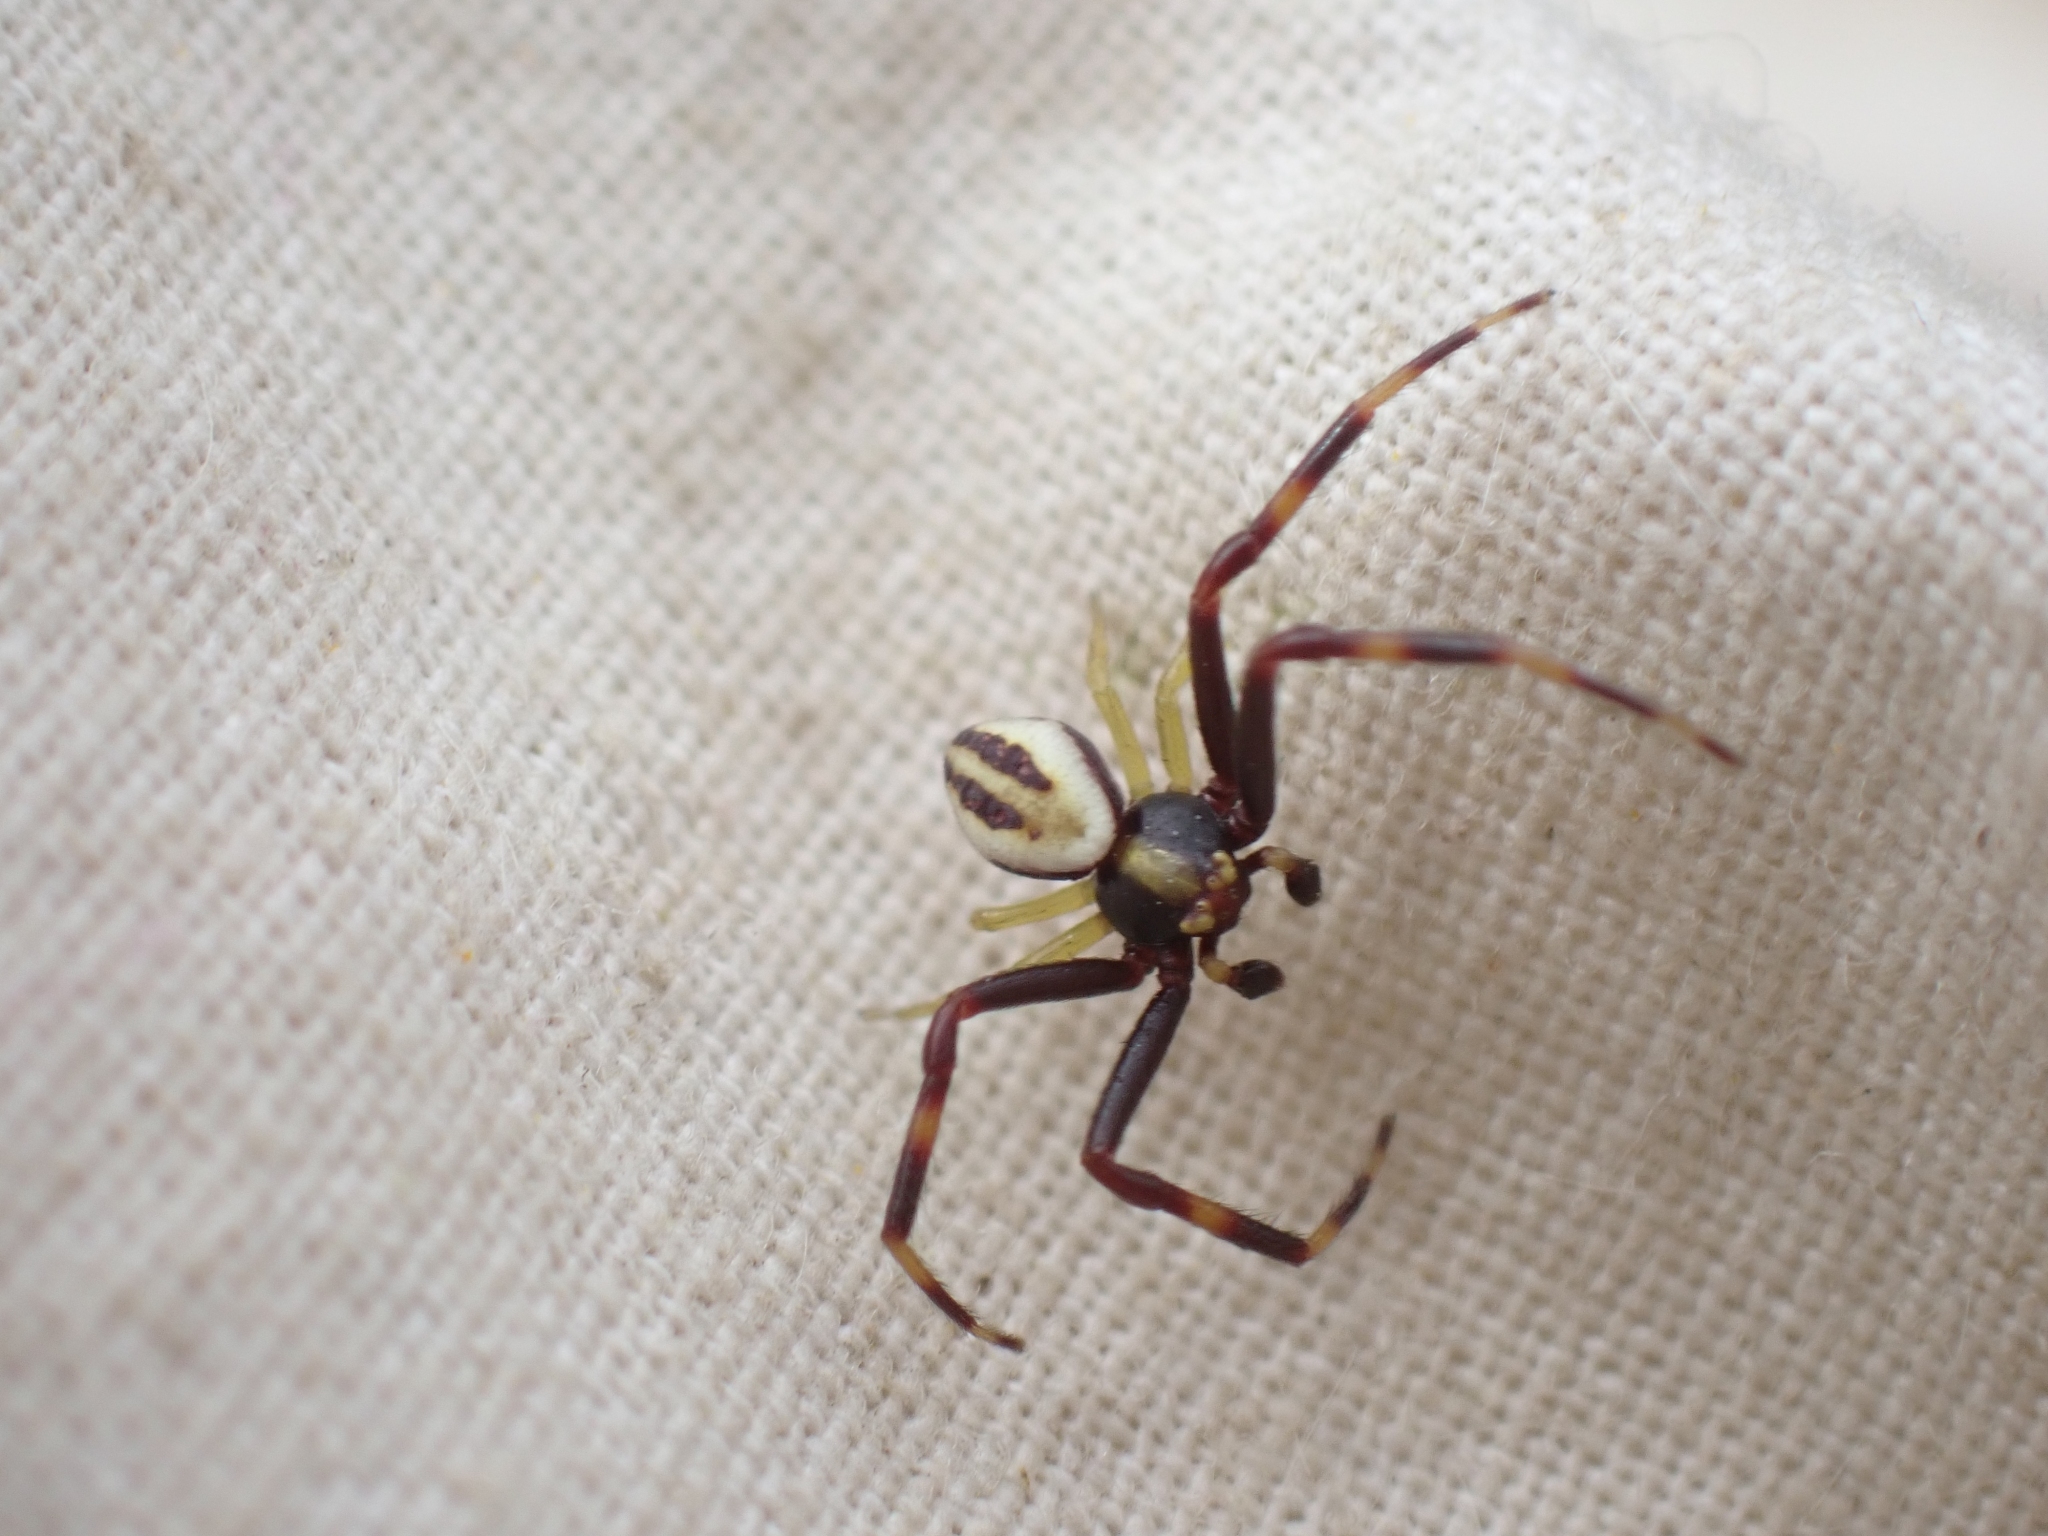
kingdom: Animalia
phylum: Arthropoda
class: Arachnida
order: Araneae
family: Thomisidae
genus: Misumena
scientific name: Misumena vatia
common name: Goldenrod crab spider
